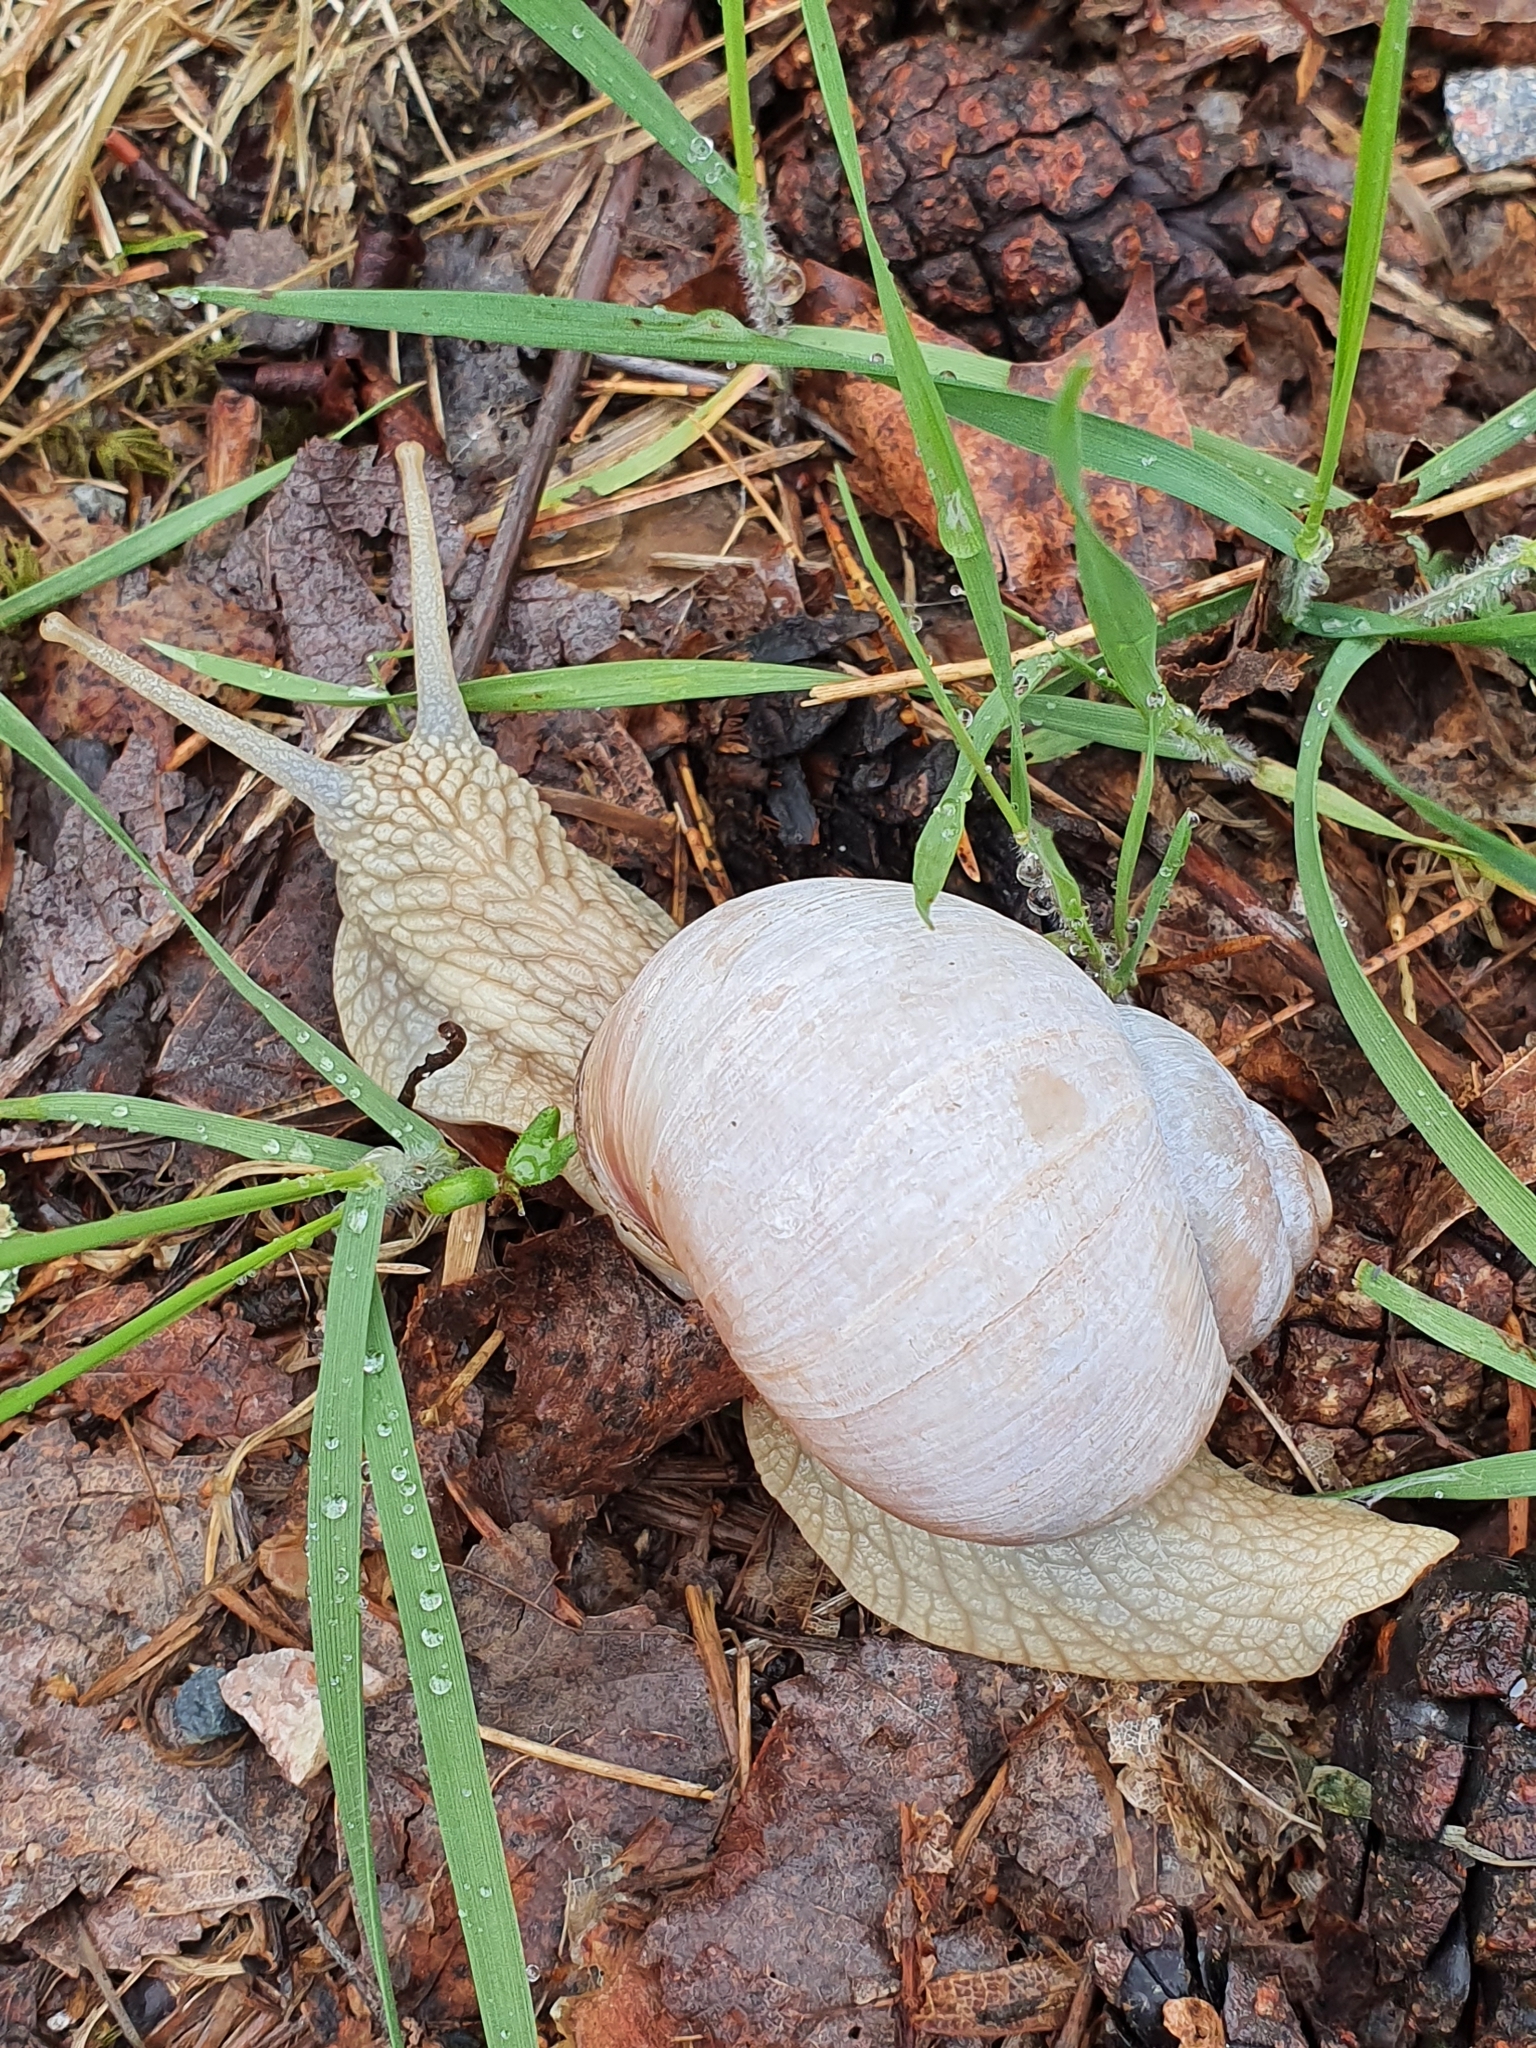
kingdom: Animalia
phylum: Mollusca
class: Gastropoda
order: Stylommatophora
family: Helicidae
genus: Helix
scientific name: Helix pomatia
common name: Roman snail
